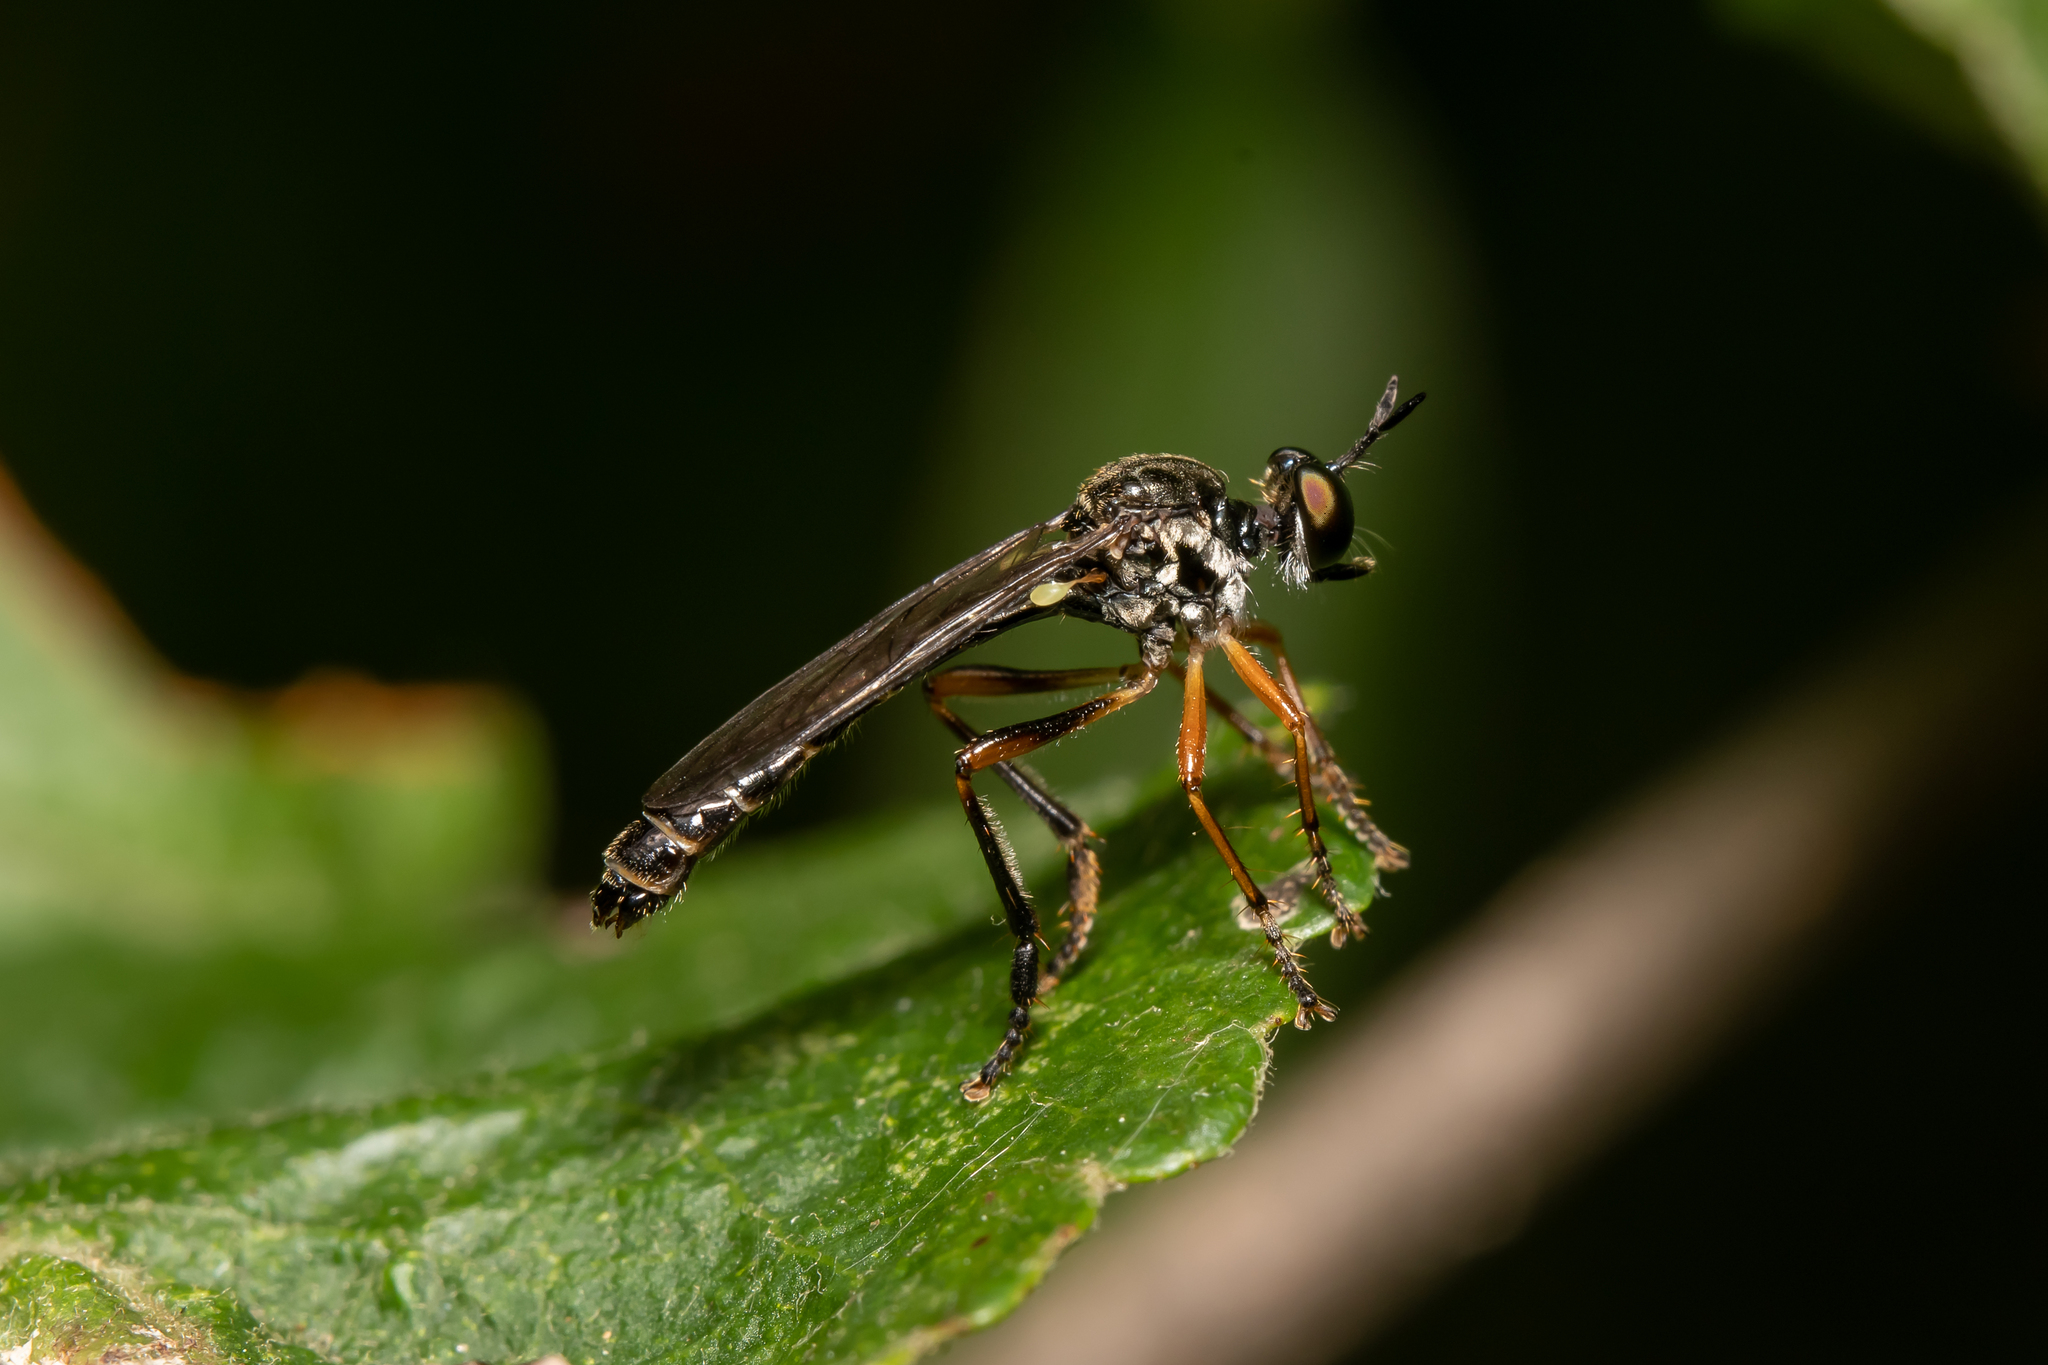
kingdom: Animalia
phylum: Arthropoda
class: Insecta
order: Diptera
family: Asilidae
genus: Dioctria
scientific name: Dioctria hyalipennis
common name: Stripe-legged robberfly
